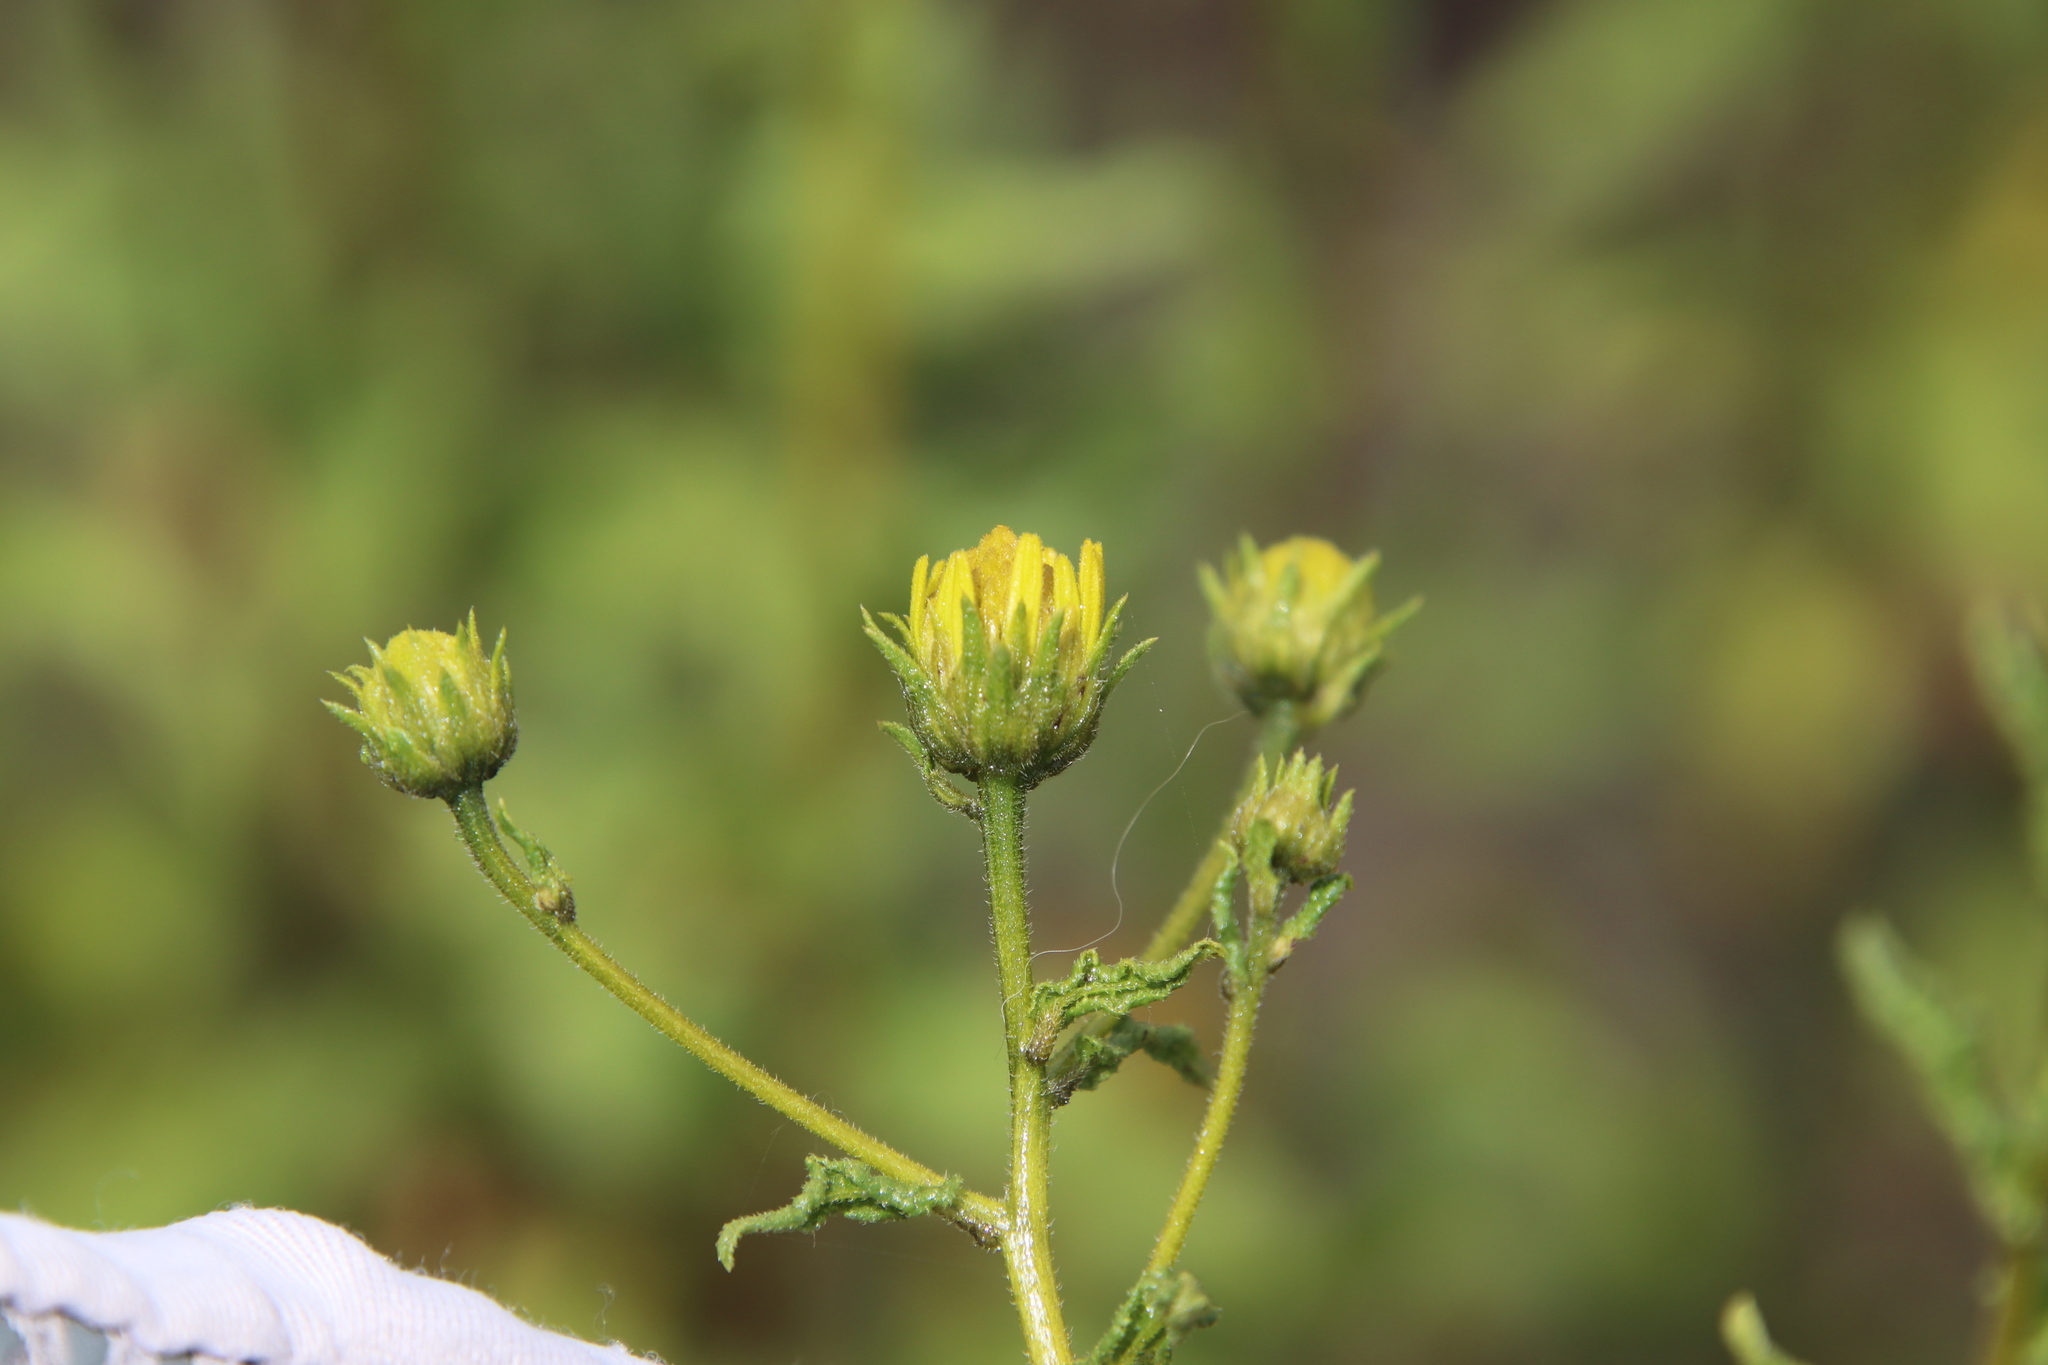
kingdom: Plantae
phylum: Tracheophyta
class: Magnoliopsida
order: Asterales
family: Asteraceae
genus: Bahiopsis
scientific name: Bahiopsis laciniata
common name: San diego county viguiera
